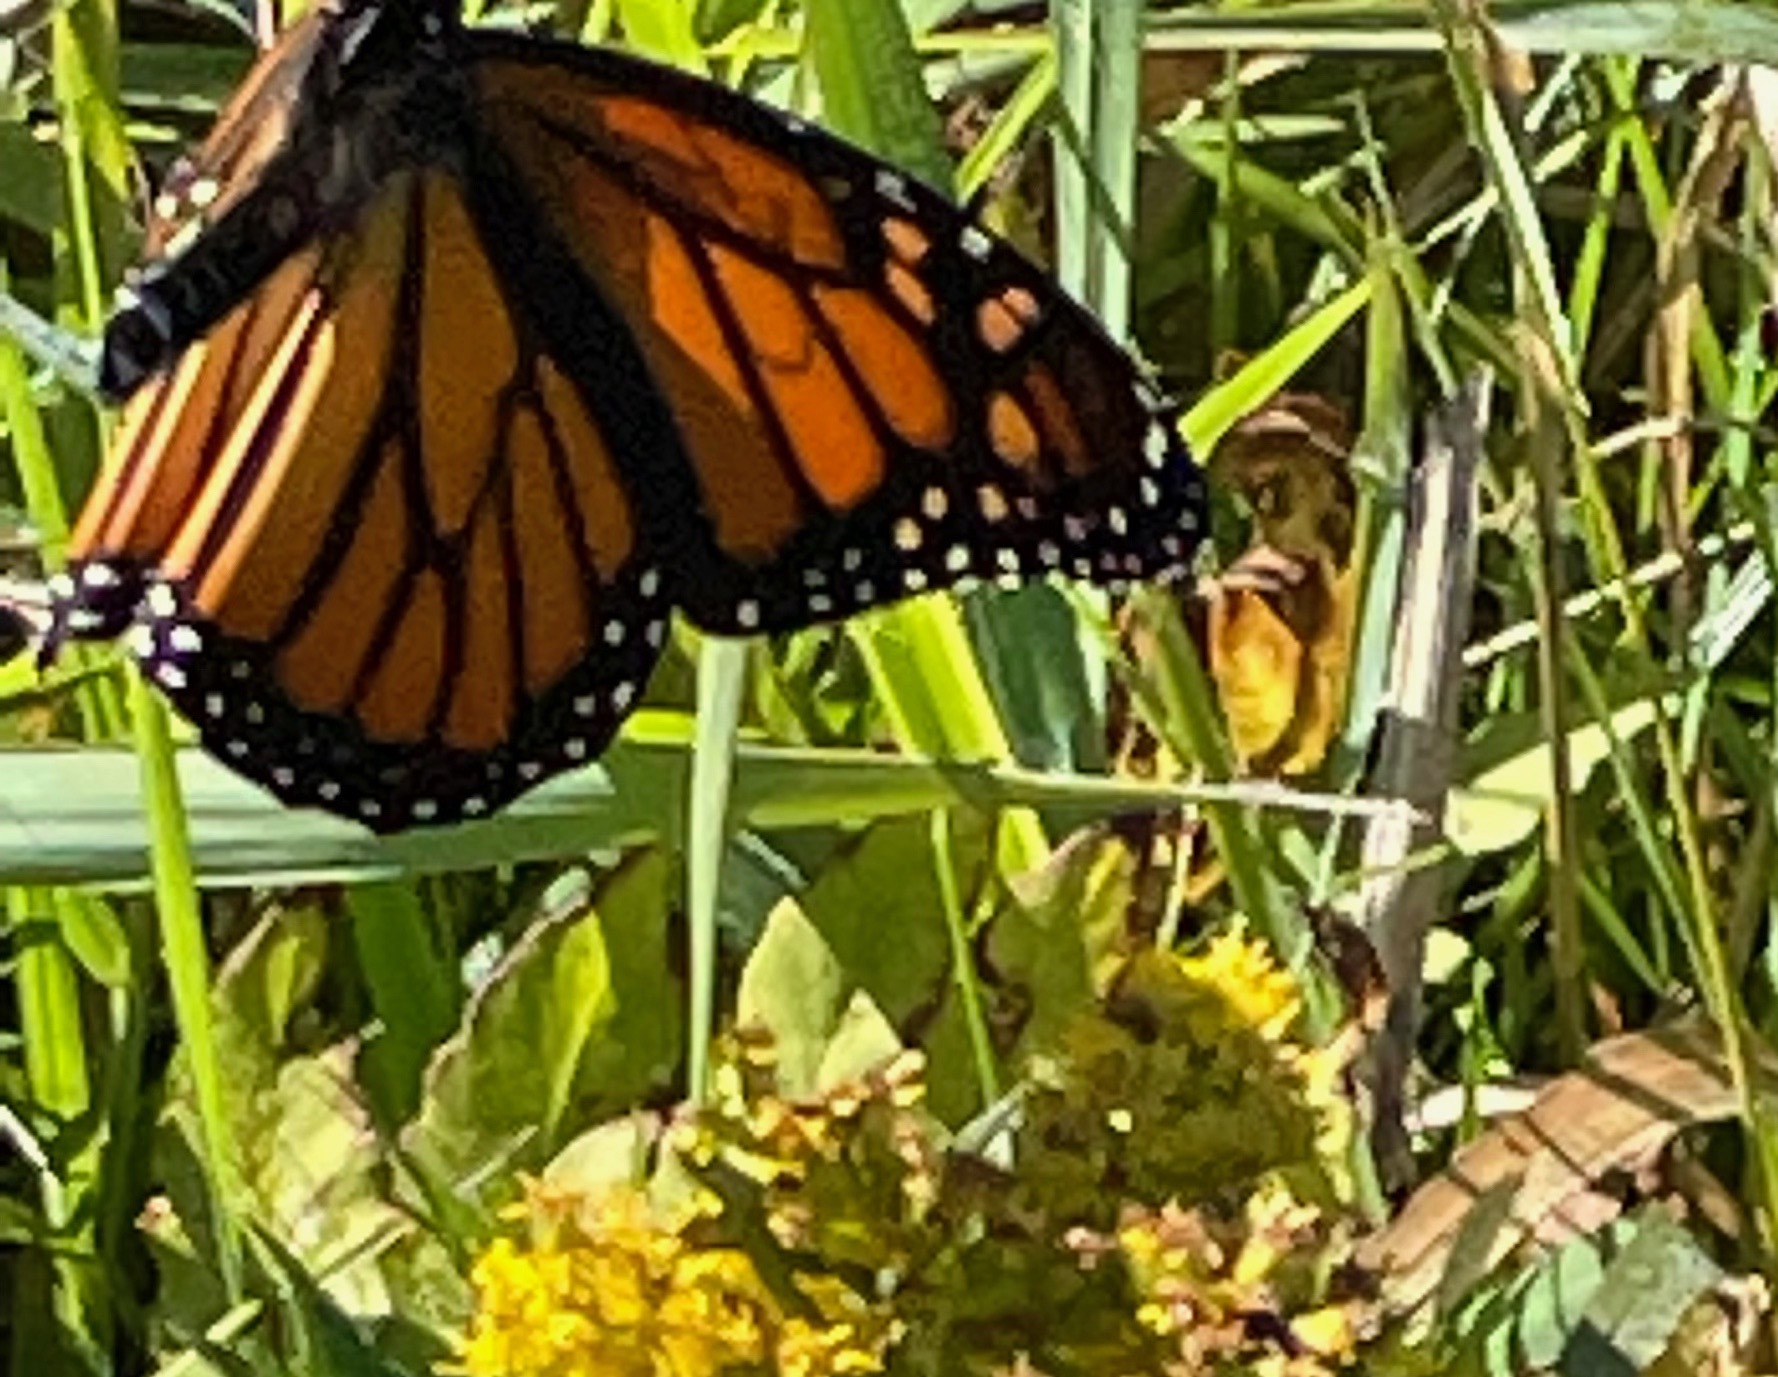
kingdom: Animalia
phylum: Arthropoda
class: Insecta
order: Lepidoptera
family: Nymphalidae
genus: Danaus
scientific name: Danaus plexippus
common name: Monarch
